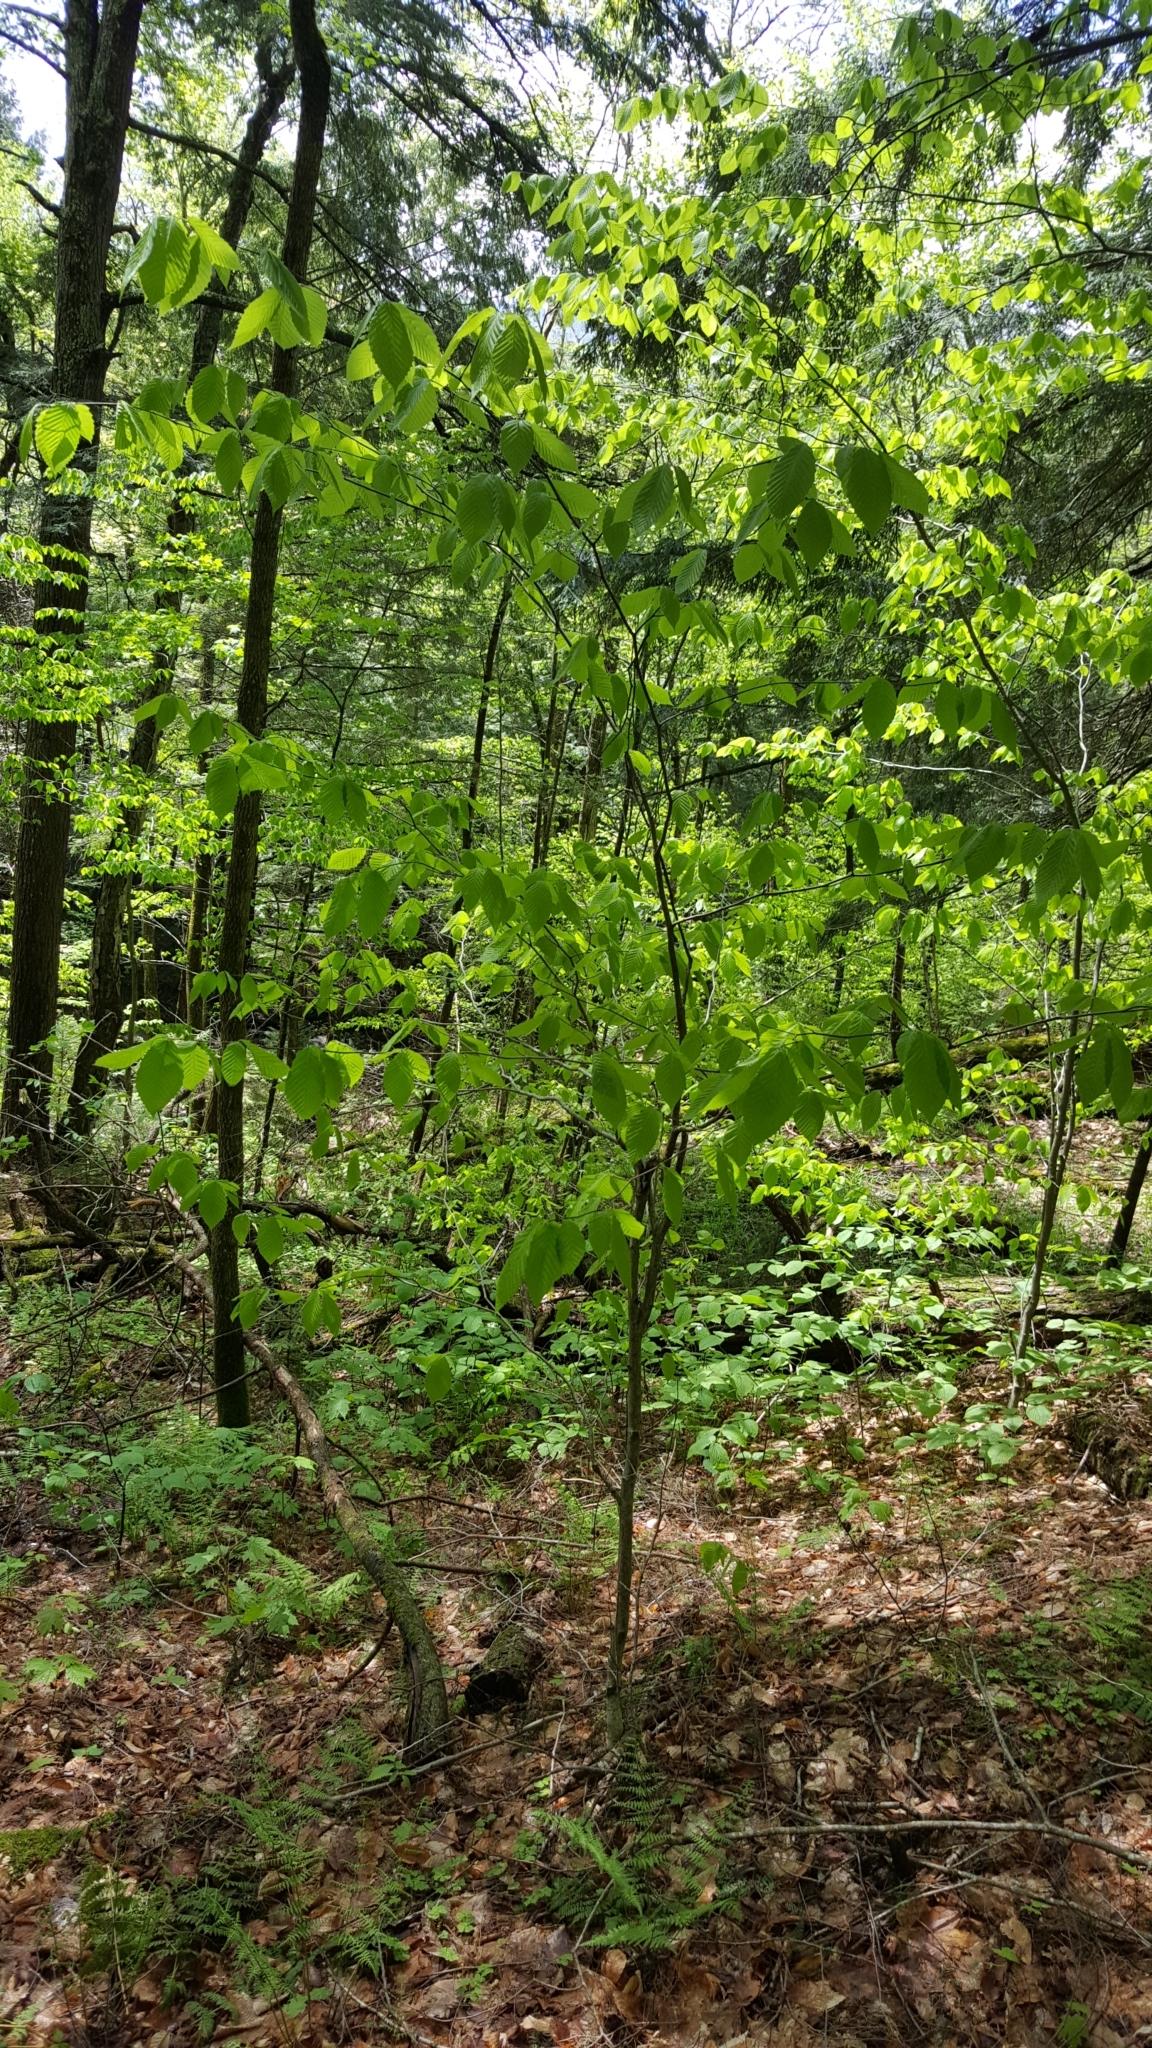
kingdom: Plantae
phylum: Tracheophyta
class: Magnoliopsida
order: Fagales
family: Fagaceae
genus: Fagus
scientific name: Fagus grandifolia
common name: American beech
